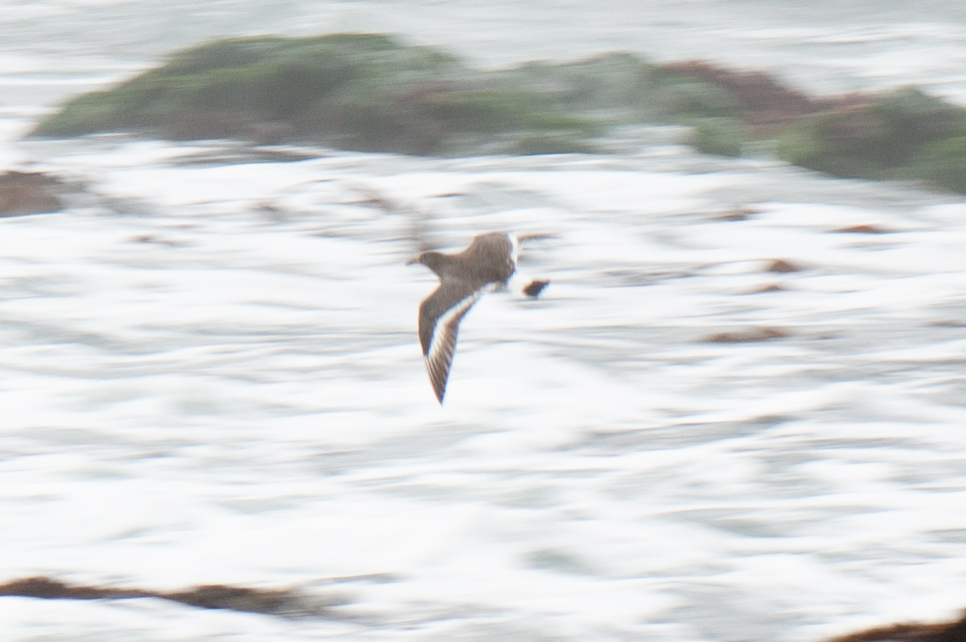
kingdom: Animalia
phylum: Chordata
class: Aves
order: Charadriiformes
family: Scolopacidae
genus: Calidris
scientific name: Calidris virgata
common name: Surfbird
